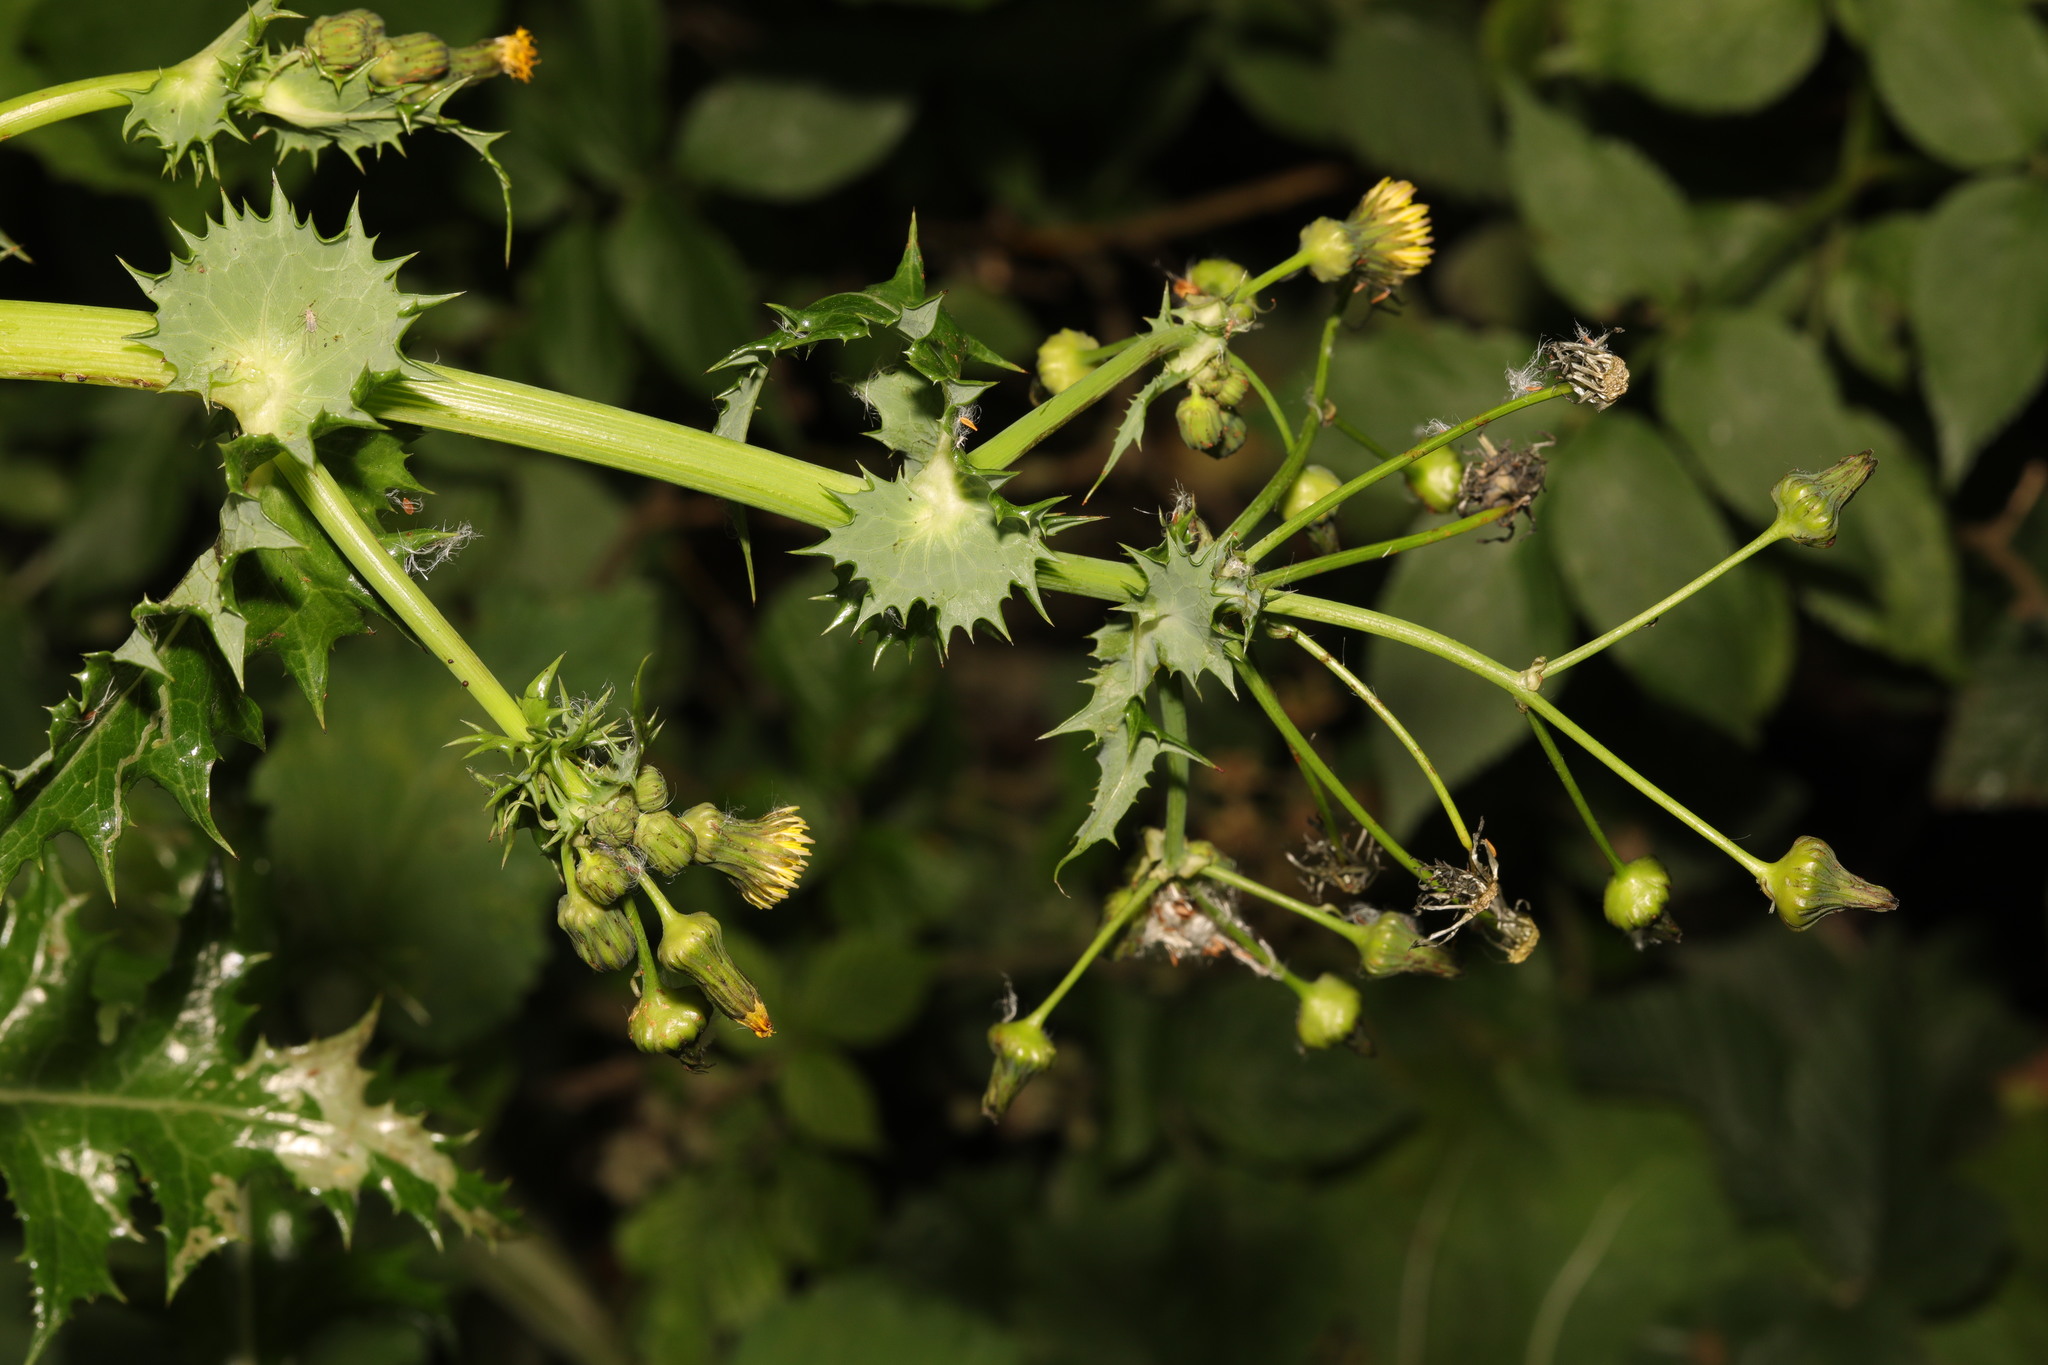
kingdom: Plantae
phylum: Tracheophyta
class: Magnoliopsida
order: Asterales
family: Asteraceae
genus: Sonchus
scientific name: Sonchus asper
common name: Prickly sow-thistle
